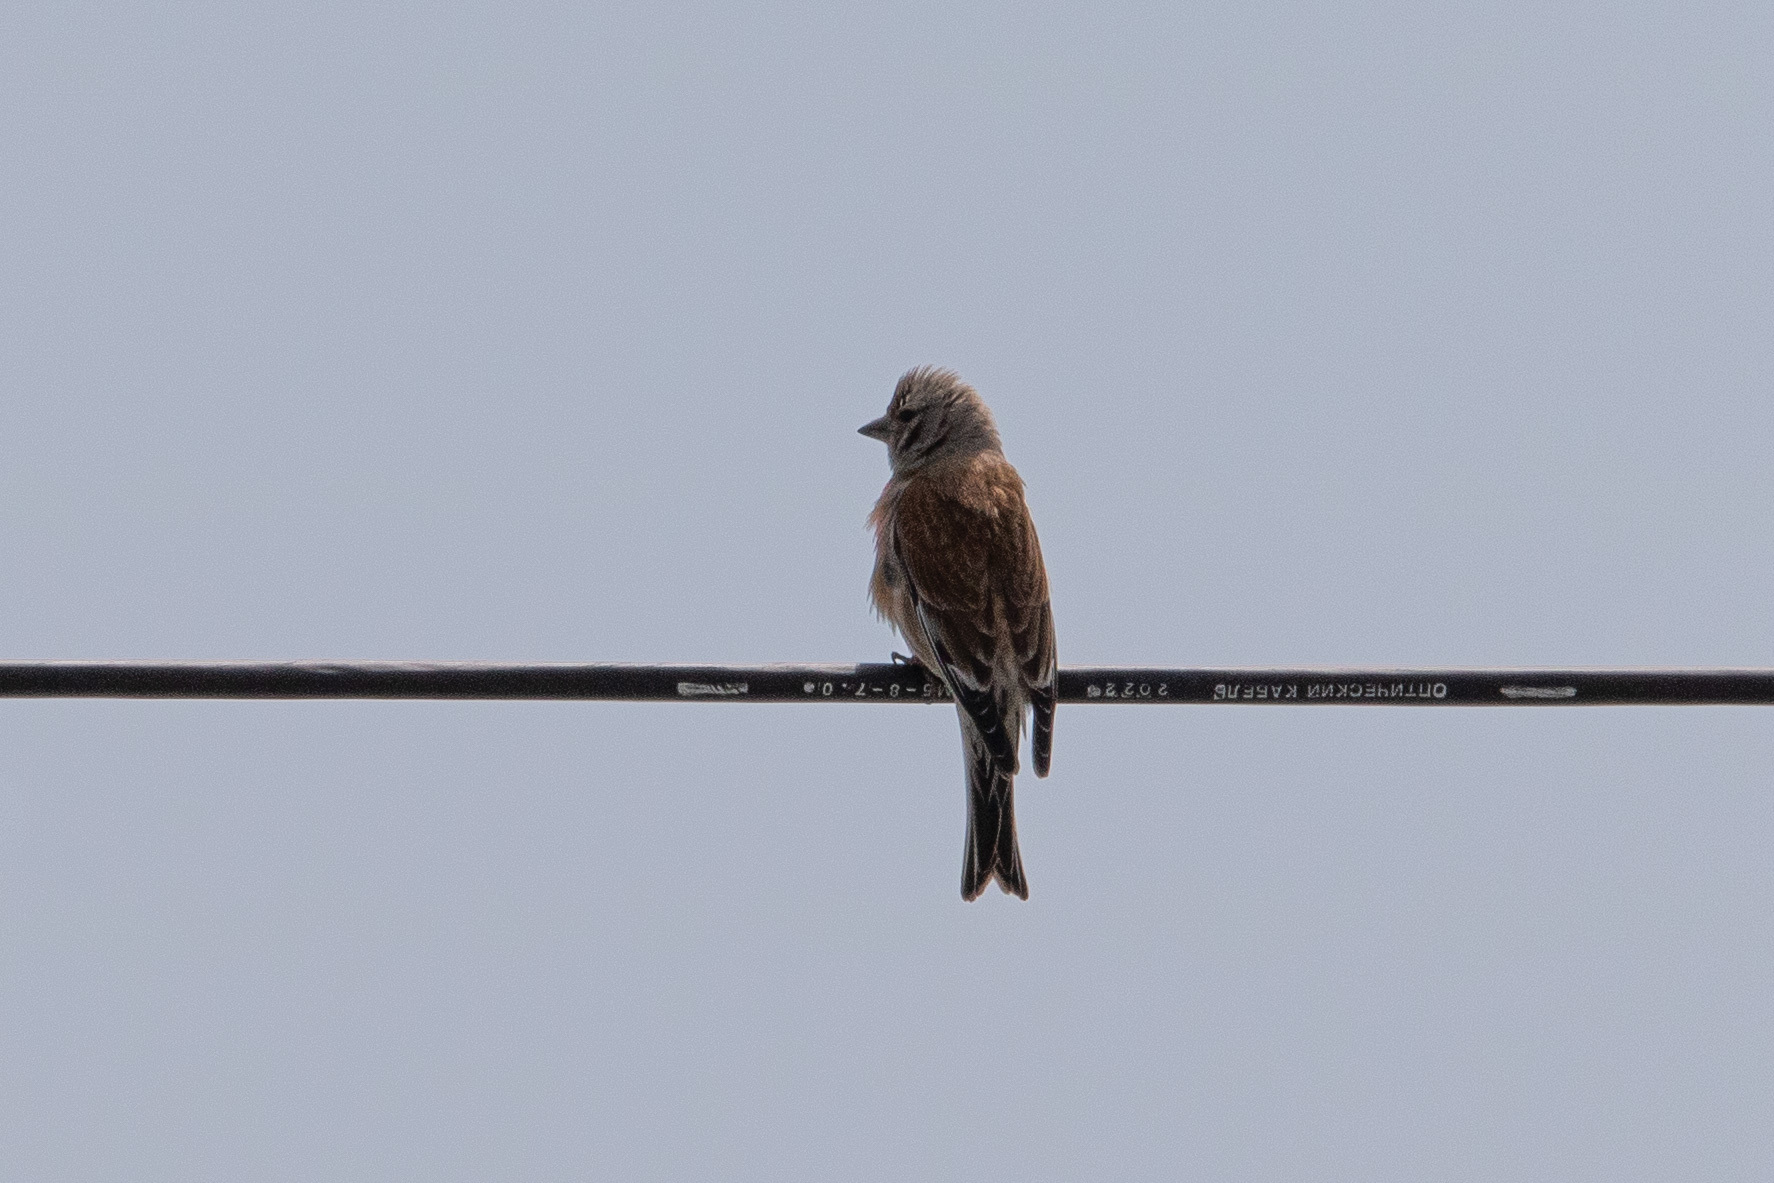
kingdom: Animalia
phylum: Chordata
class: Aves
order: Passeriformes
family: Fringillidae
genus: Linaria
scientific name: Linaria cannabina
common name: Common linnet
